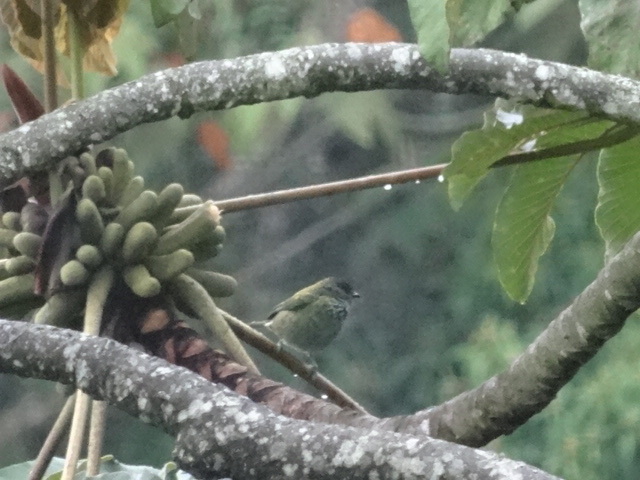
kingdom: Animalia
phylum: Chordata
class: Aves
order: Passeriformes
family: Thraupidae
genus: Stilpnia
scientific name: Stilpnia heinei
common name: Black-capped tanager
